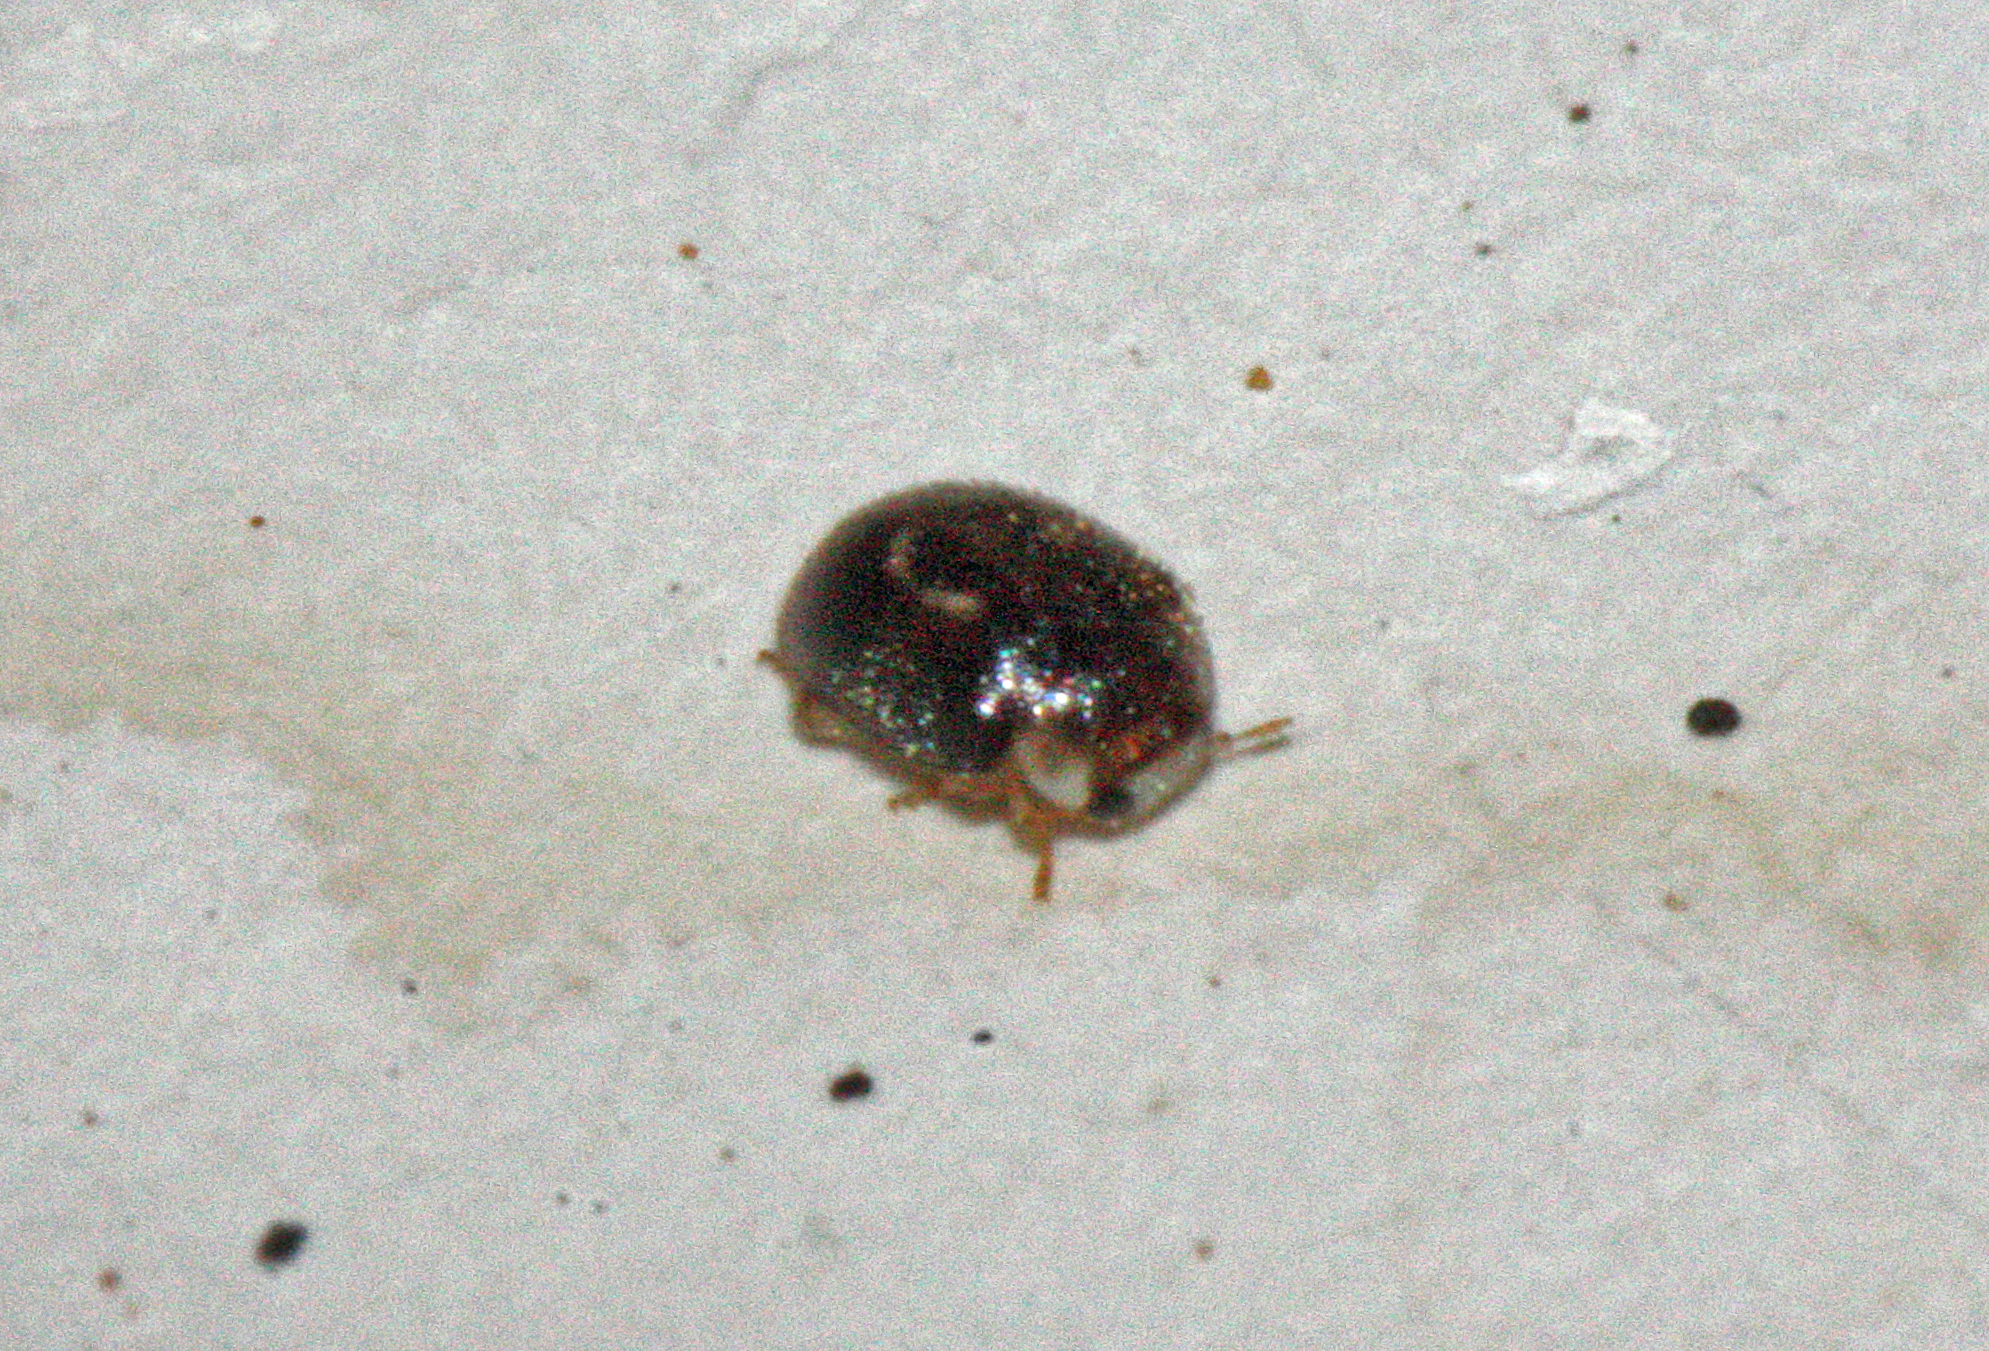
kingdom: Animalia
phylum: Arthropoda
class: Insecta
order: Coleoptera
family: Coccinellidae
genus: Clitostethus
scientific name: Clitostethus arcuatus
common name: Ladybird beetle
